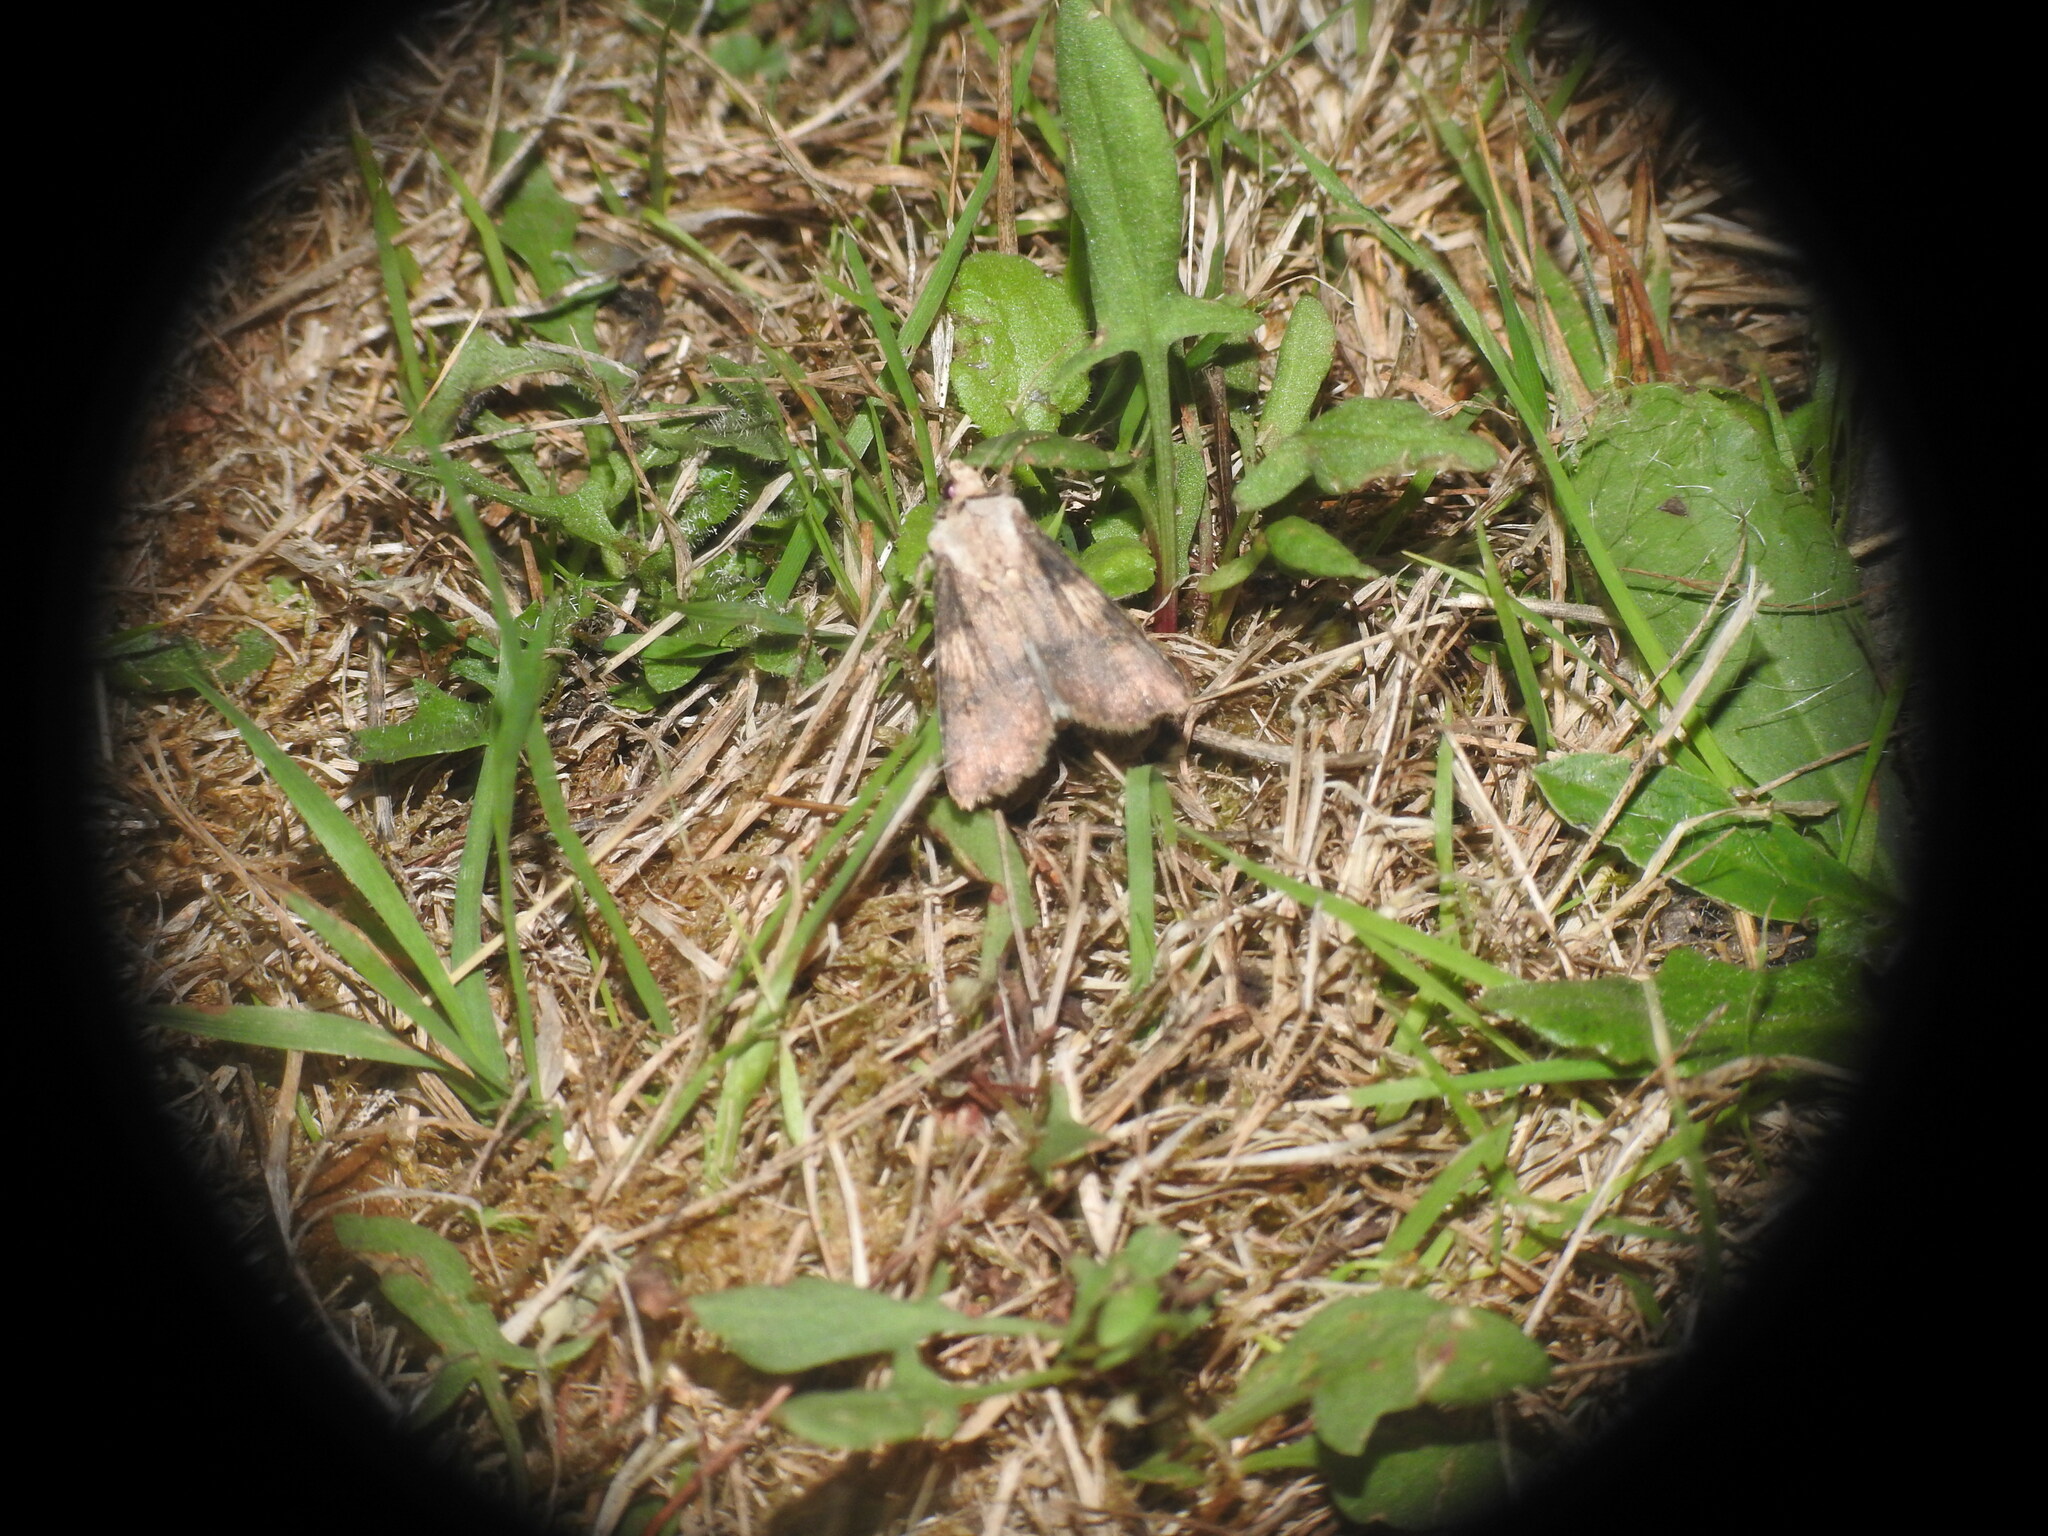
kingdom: Animalia
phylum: Arthropoda
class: Insecta
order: Lepidoptera
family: Noctuidae
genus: Agrotis
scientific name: Agrotis puta
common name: Shuttle-shaped dart
